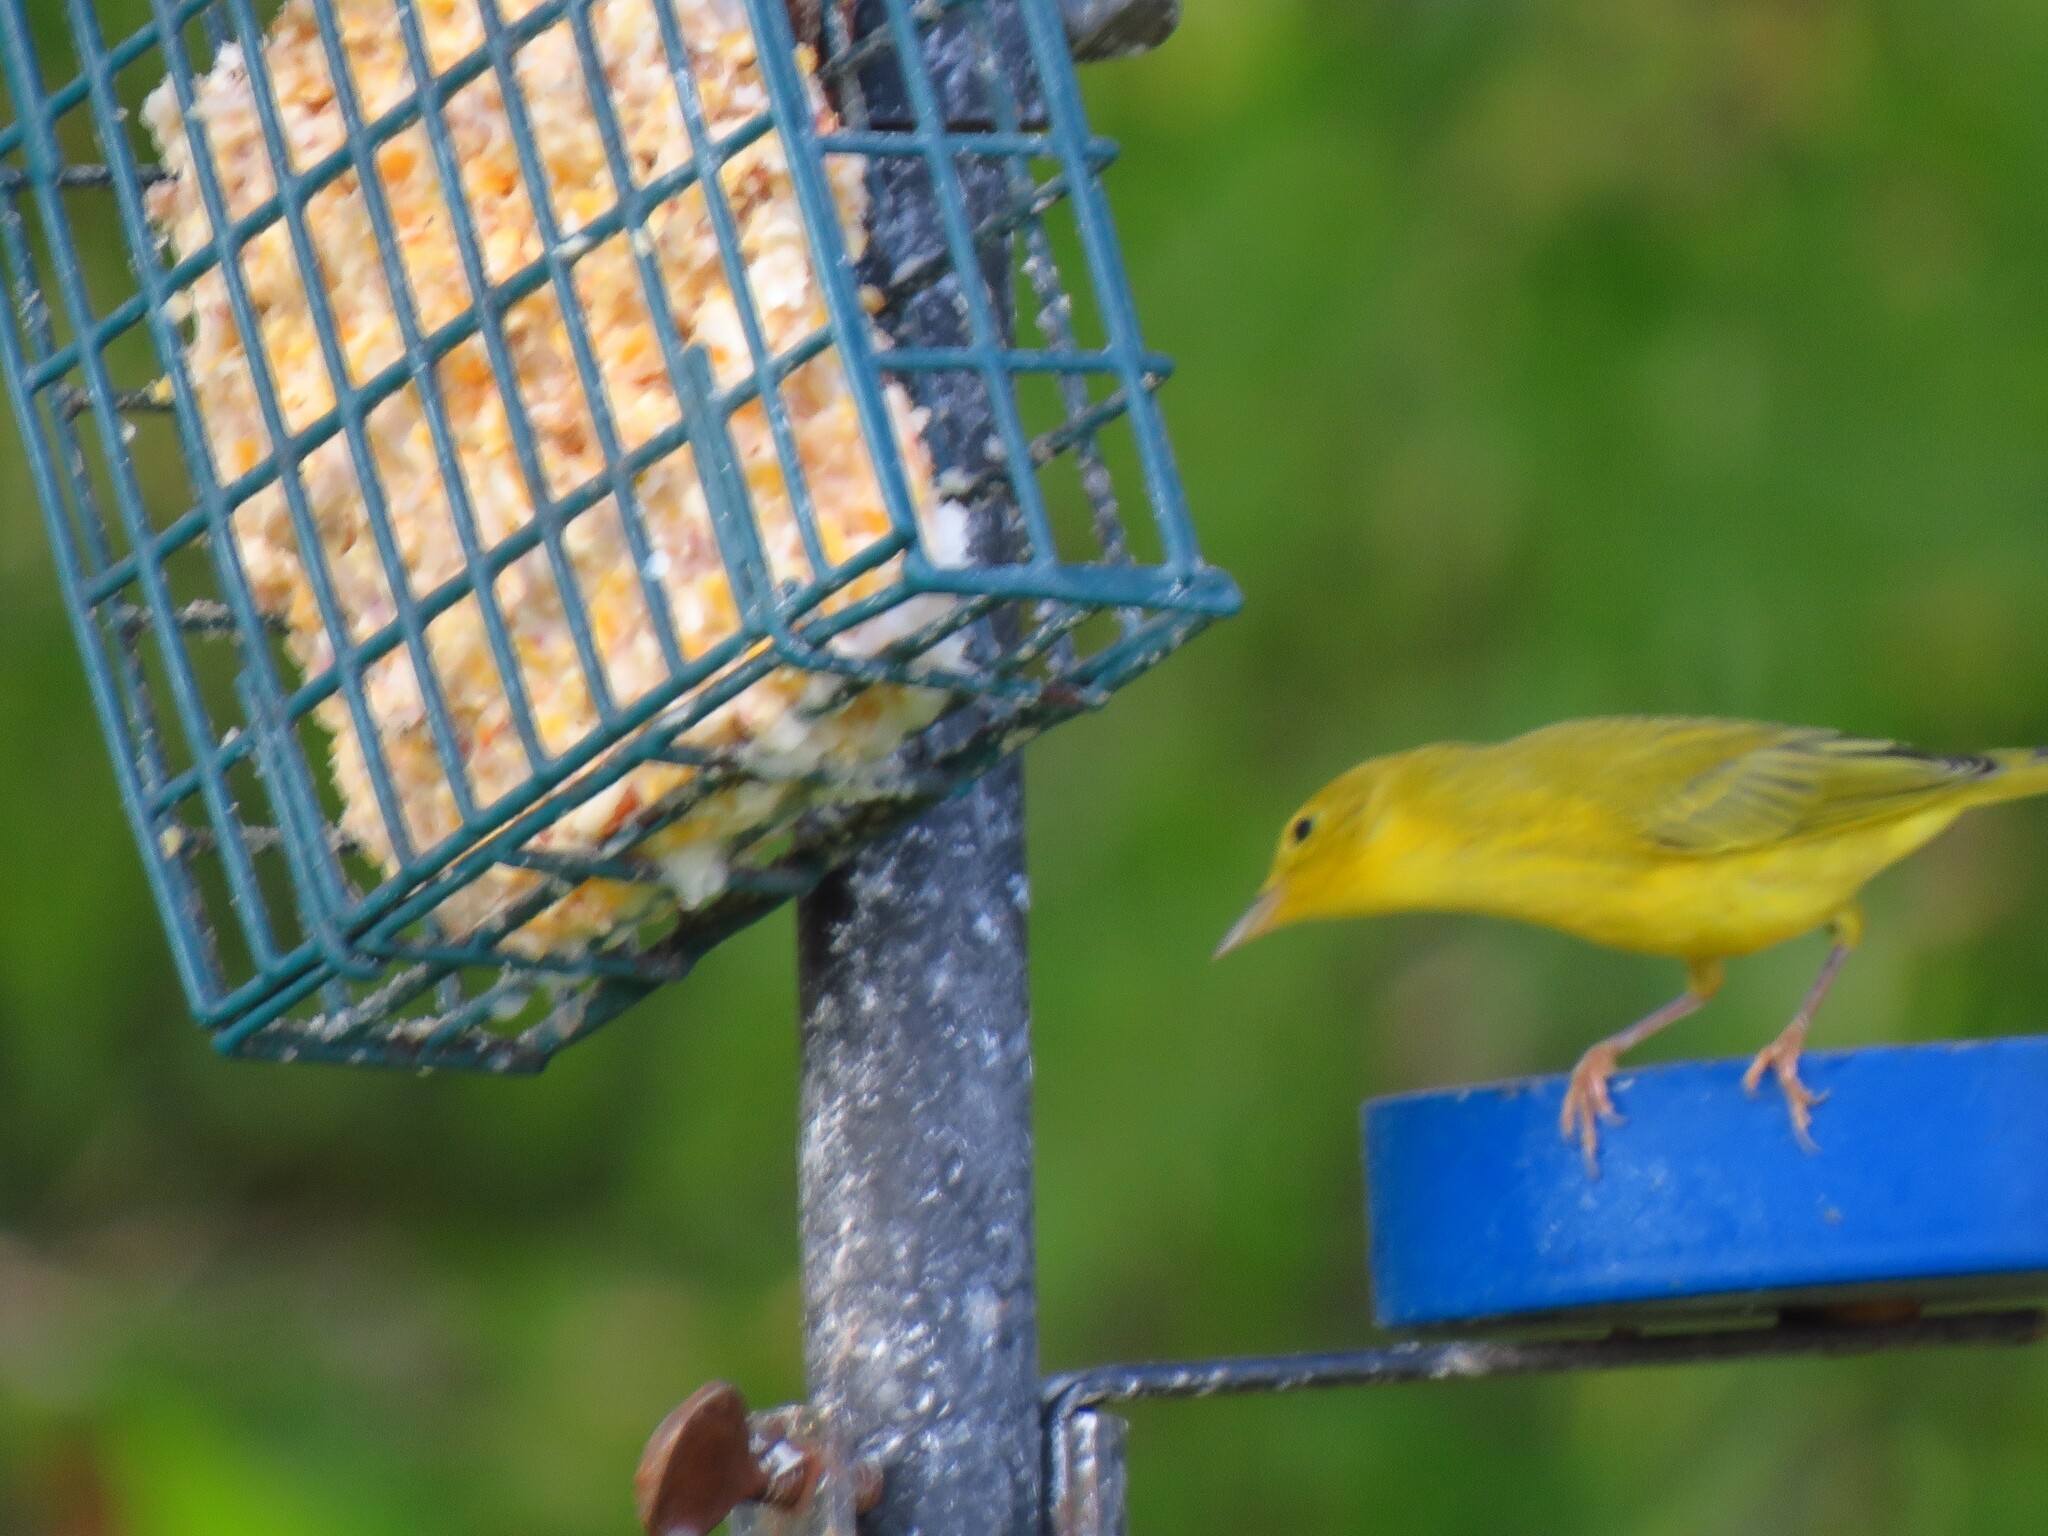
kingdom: Animalia
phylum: Chordata
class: Aves
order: Passeriformes
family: Parulidae
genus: Setophaga
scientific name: Setophaga petechia
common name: Yellow warbler
